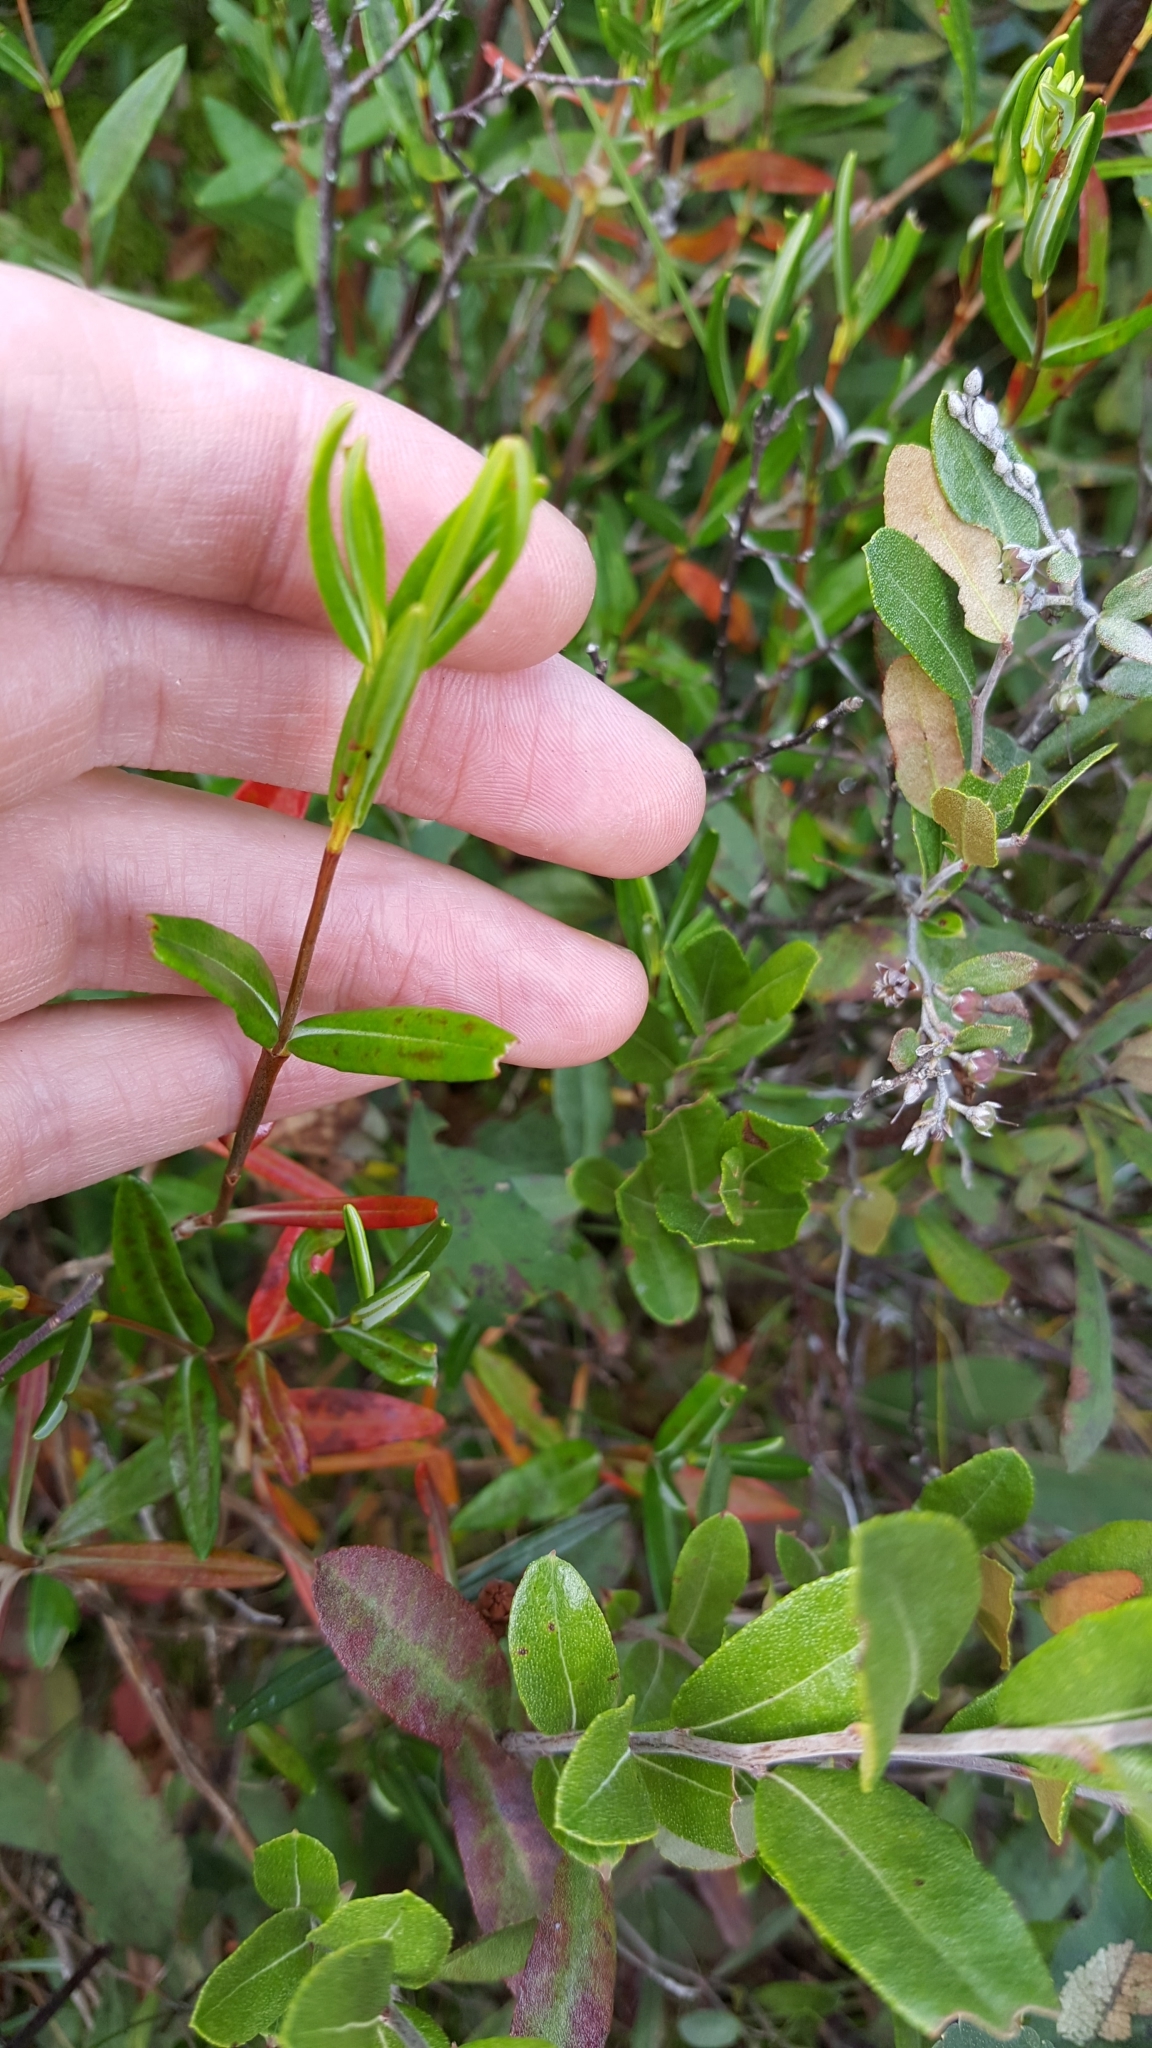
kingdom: Plantae
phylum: Tracheophyta
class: Magnoliopsida
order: Ericales
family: Ericaceae
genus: Kalmia
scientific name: Kalmia polifolia
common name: Bog-laurel
